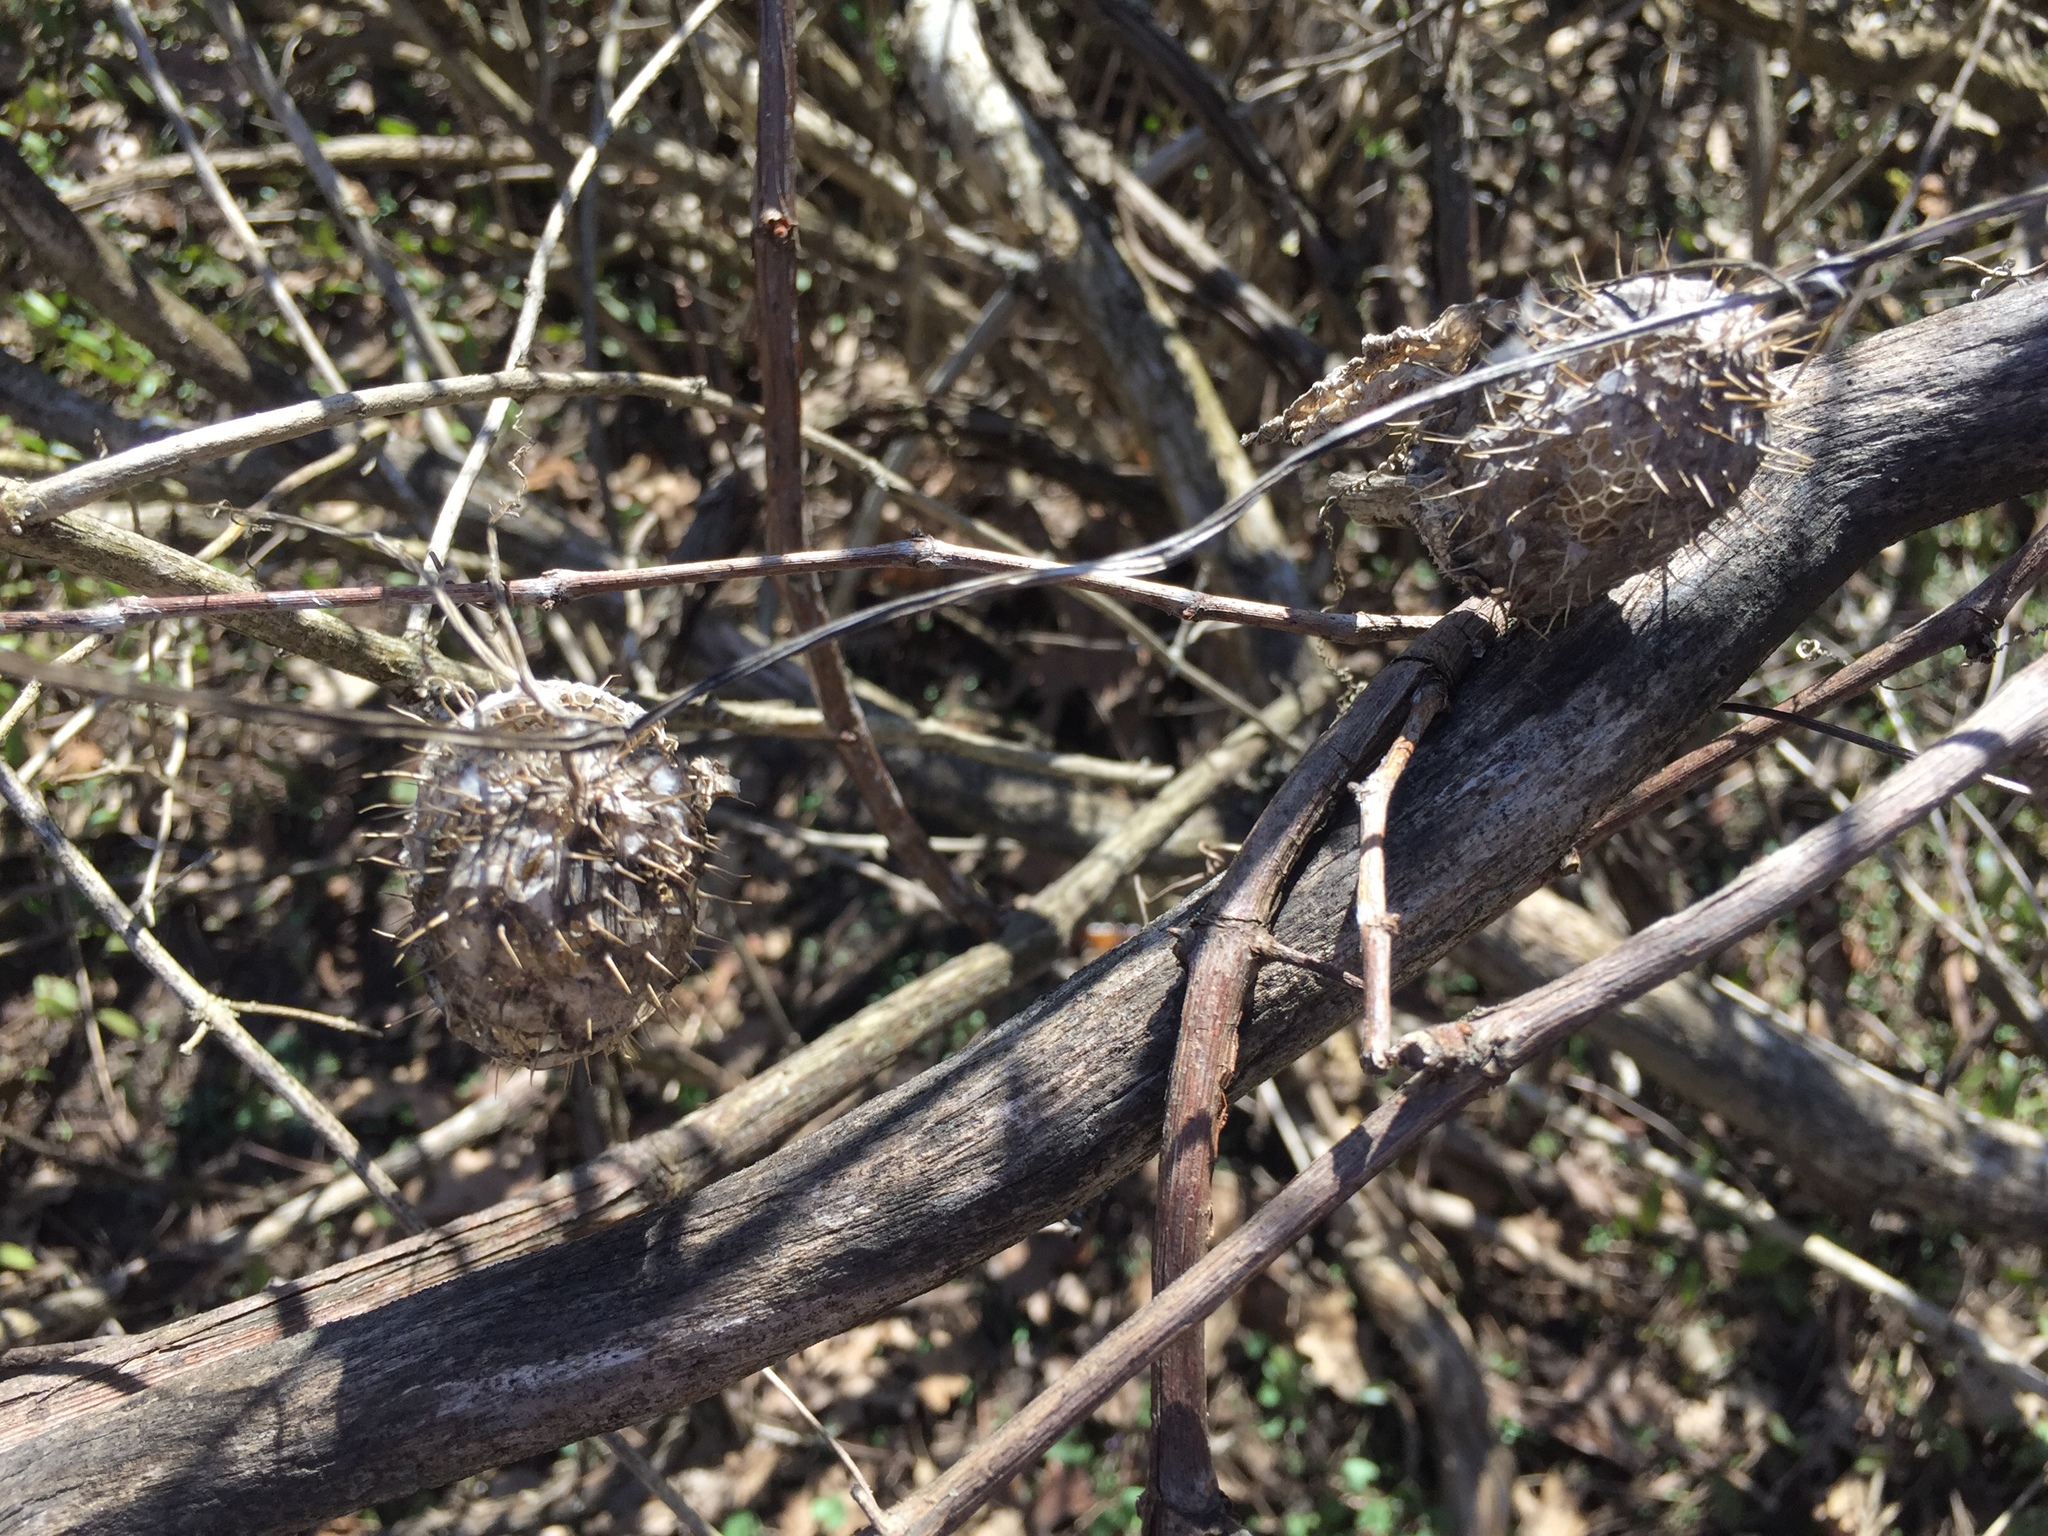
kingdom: Plantae
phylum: Tracheophyta
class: Magnoliopsida
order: Cucurbitales
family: Cucurbitaceae
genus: Echinocystis
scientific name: Echinocystis lobata
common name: Wild cucumber
